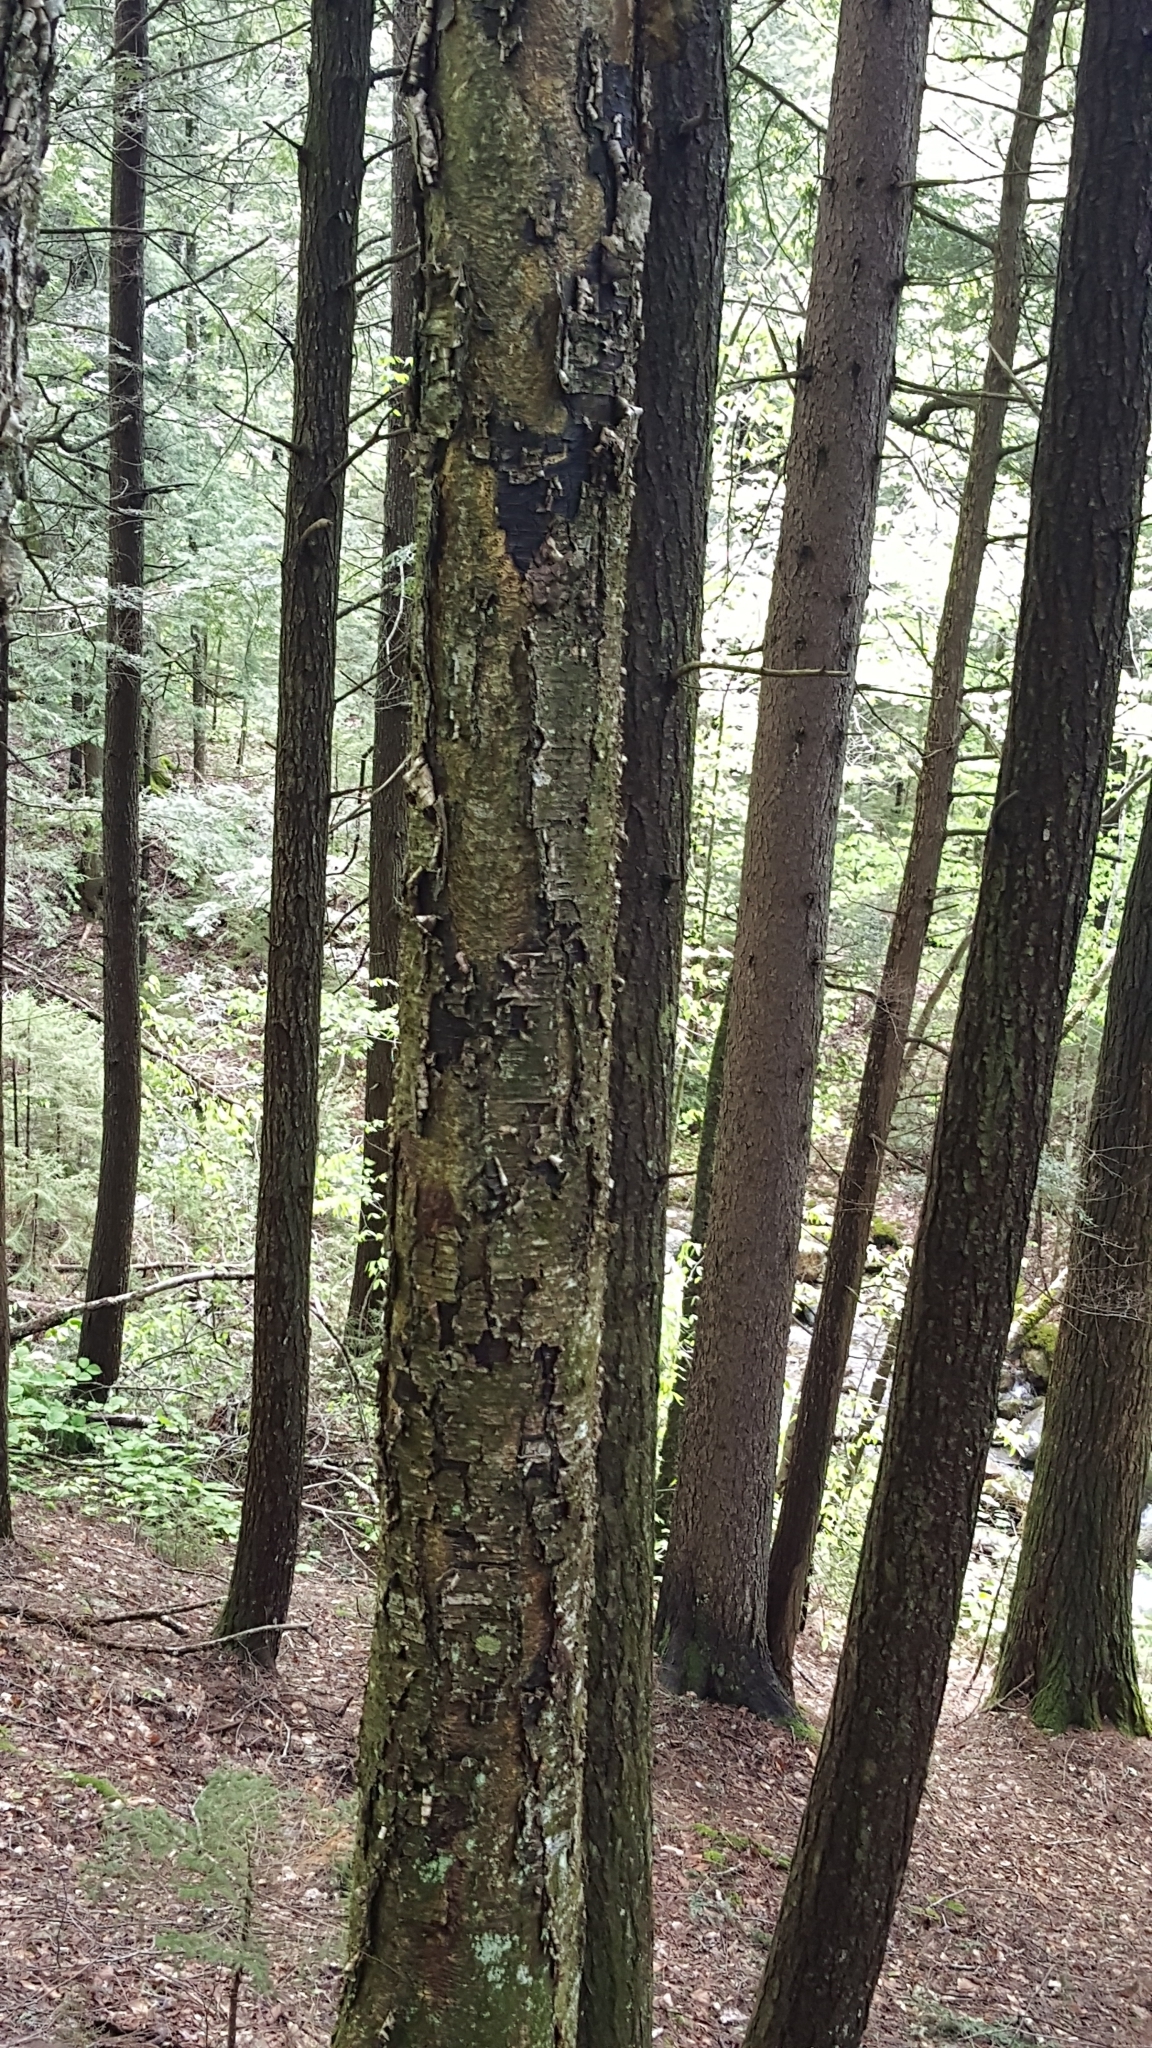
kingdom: Plantae
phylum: Tracheophyta
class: Magnoliopsida
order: Fagales
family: Betulaceae
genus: Betula
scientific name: Betula alleghaniensis
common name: Yellow birch
